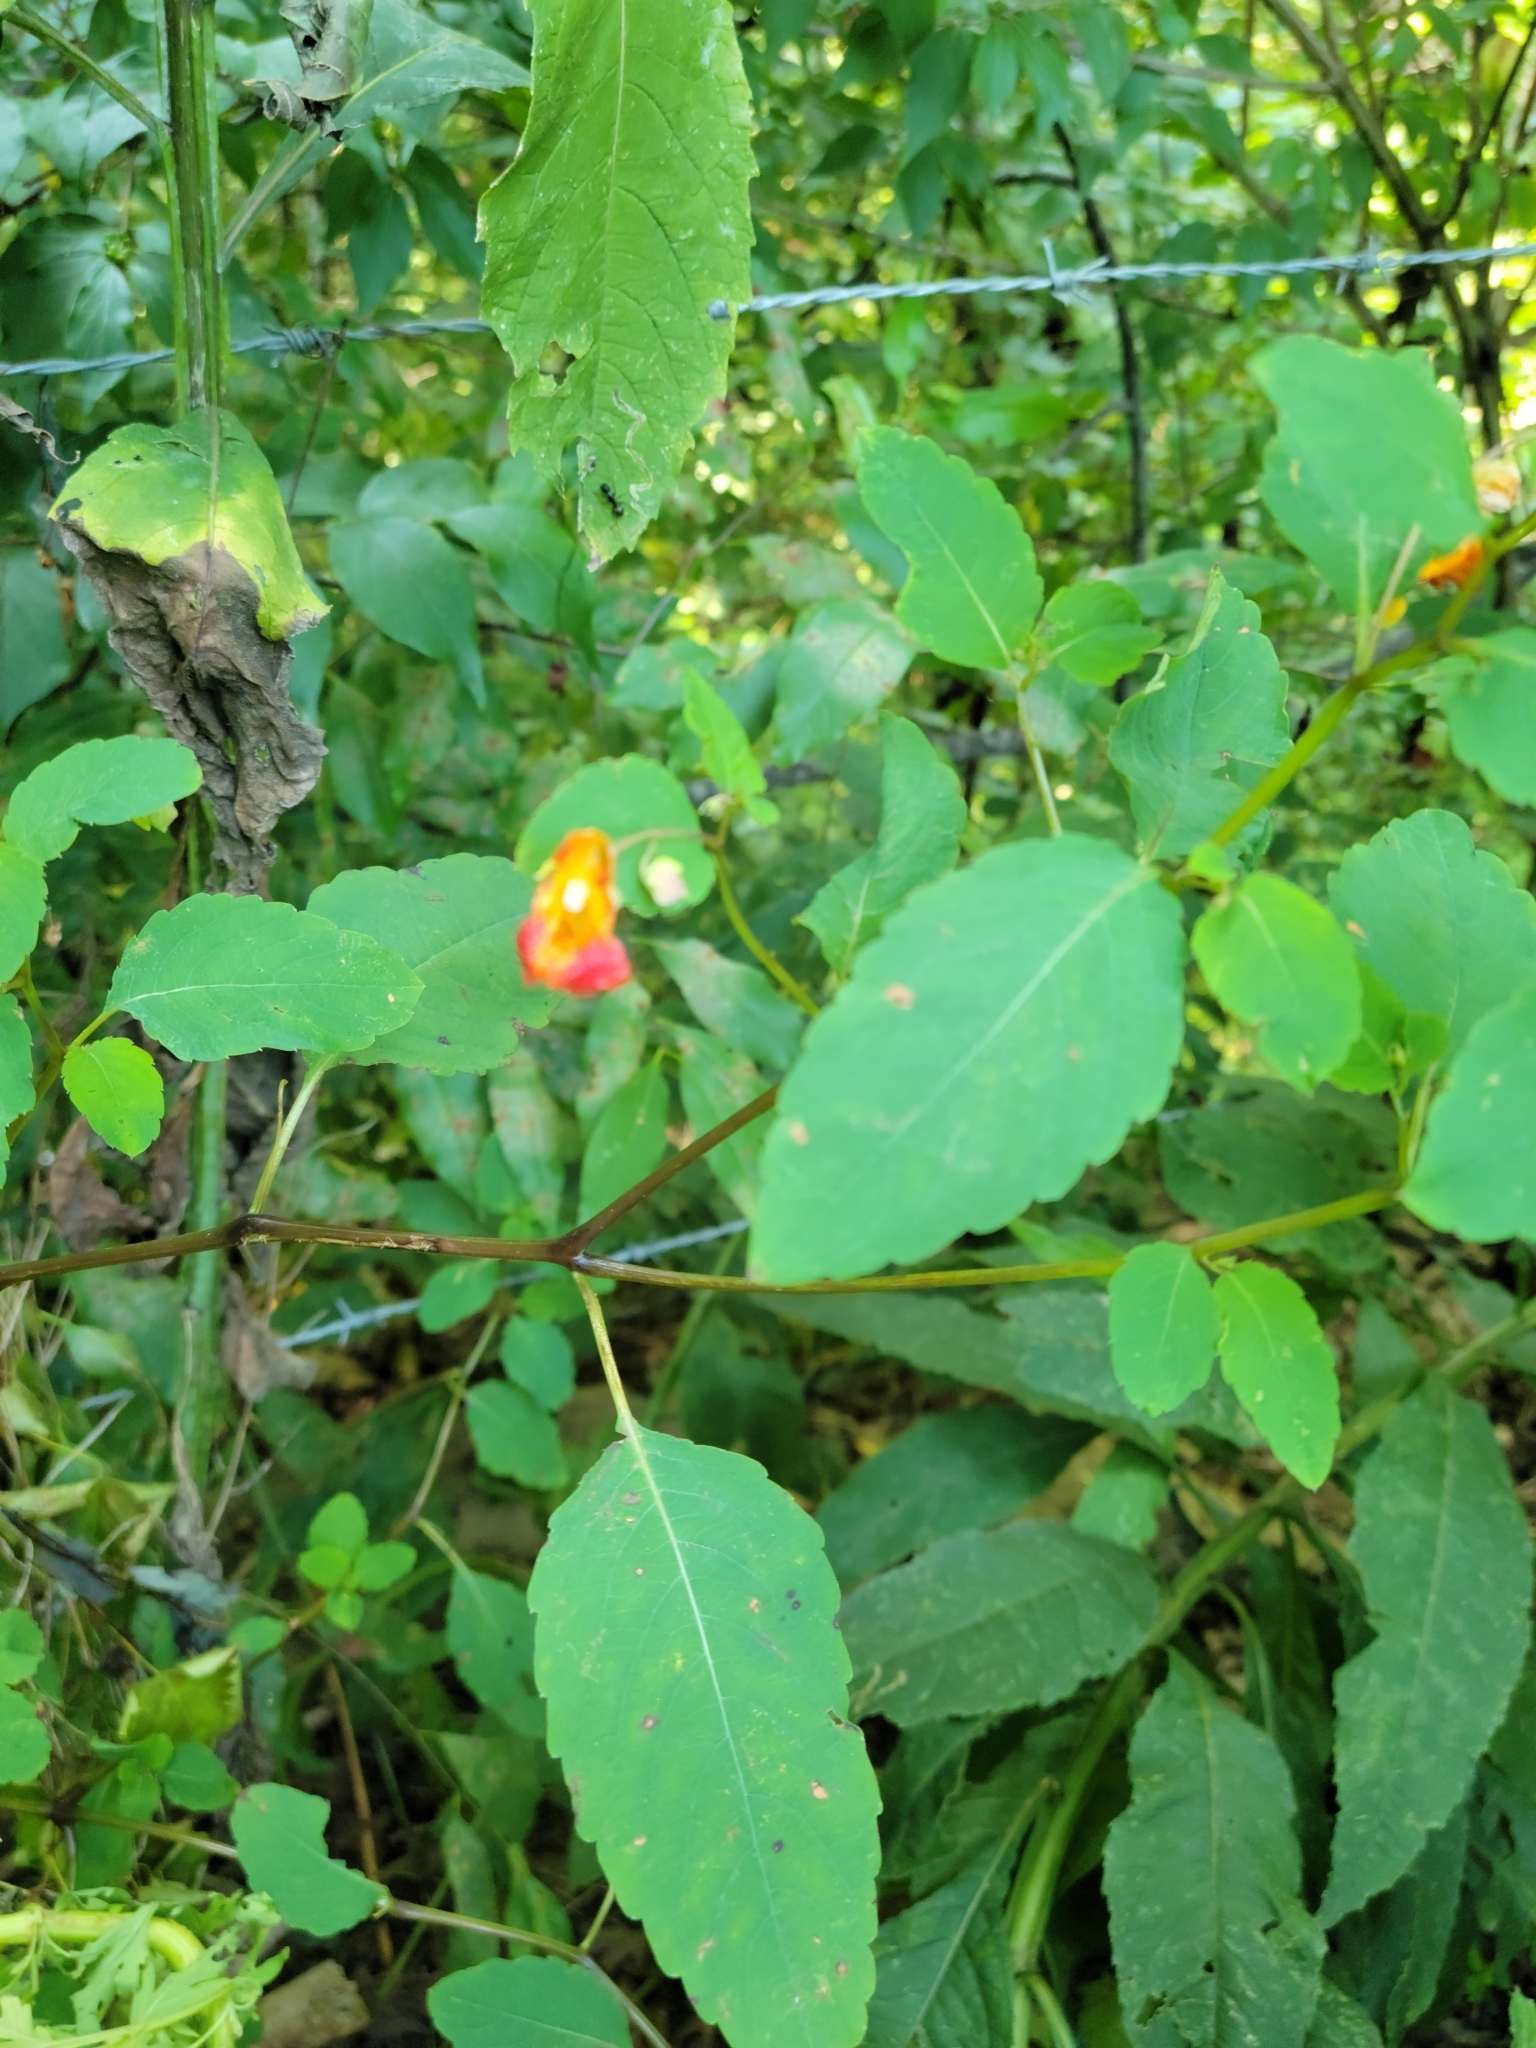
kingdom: Plantae
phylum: Tracheophyta
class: Magnoliopsida
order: Ericales
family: Balsaminaceae
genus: Impatiens
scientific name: Impatiens capensis
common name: Orange balsam
